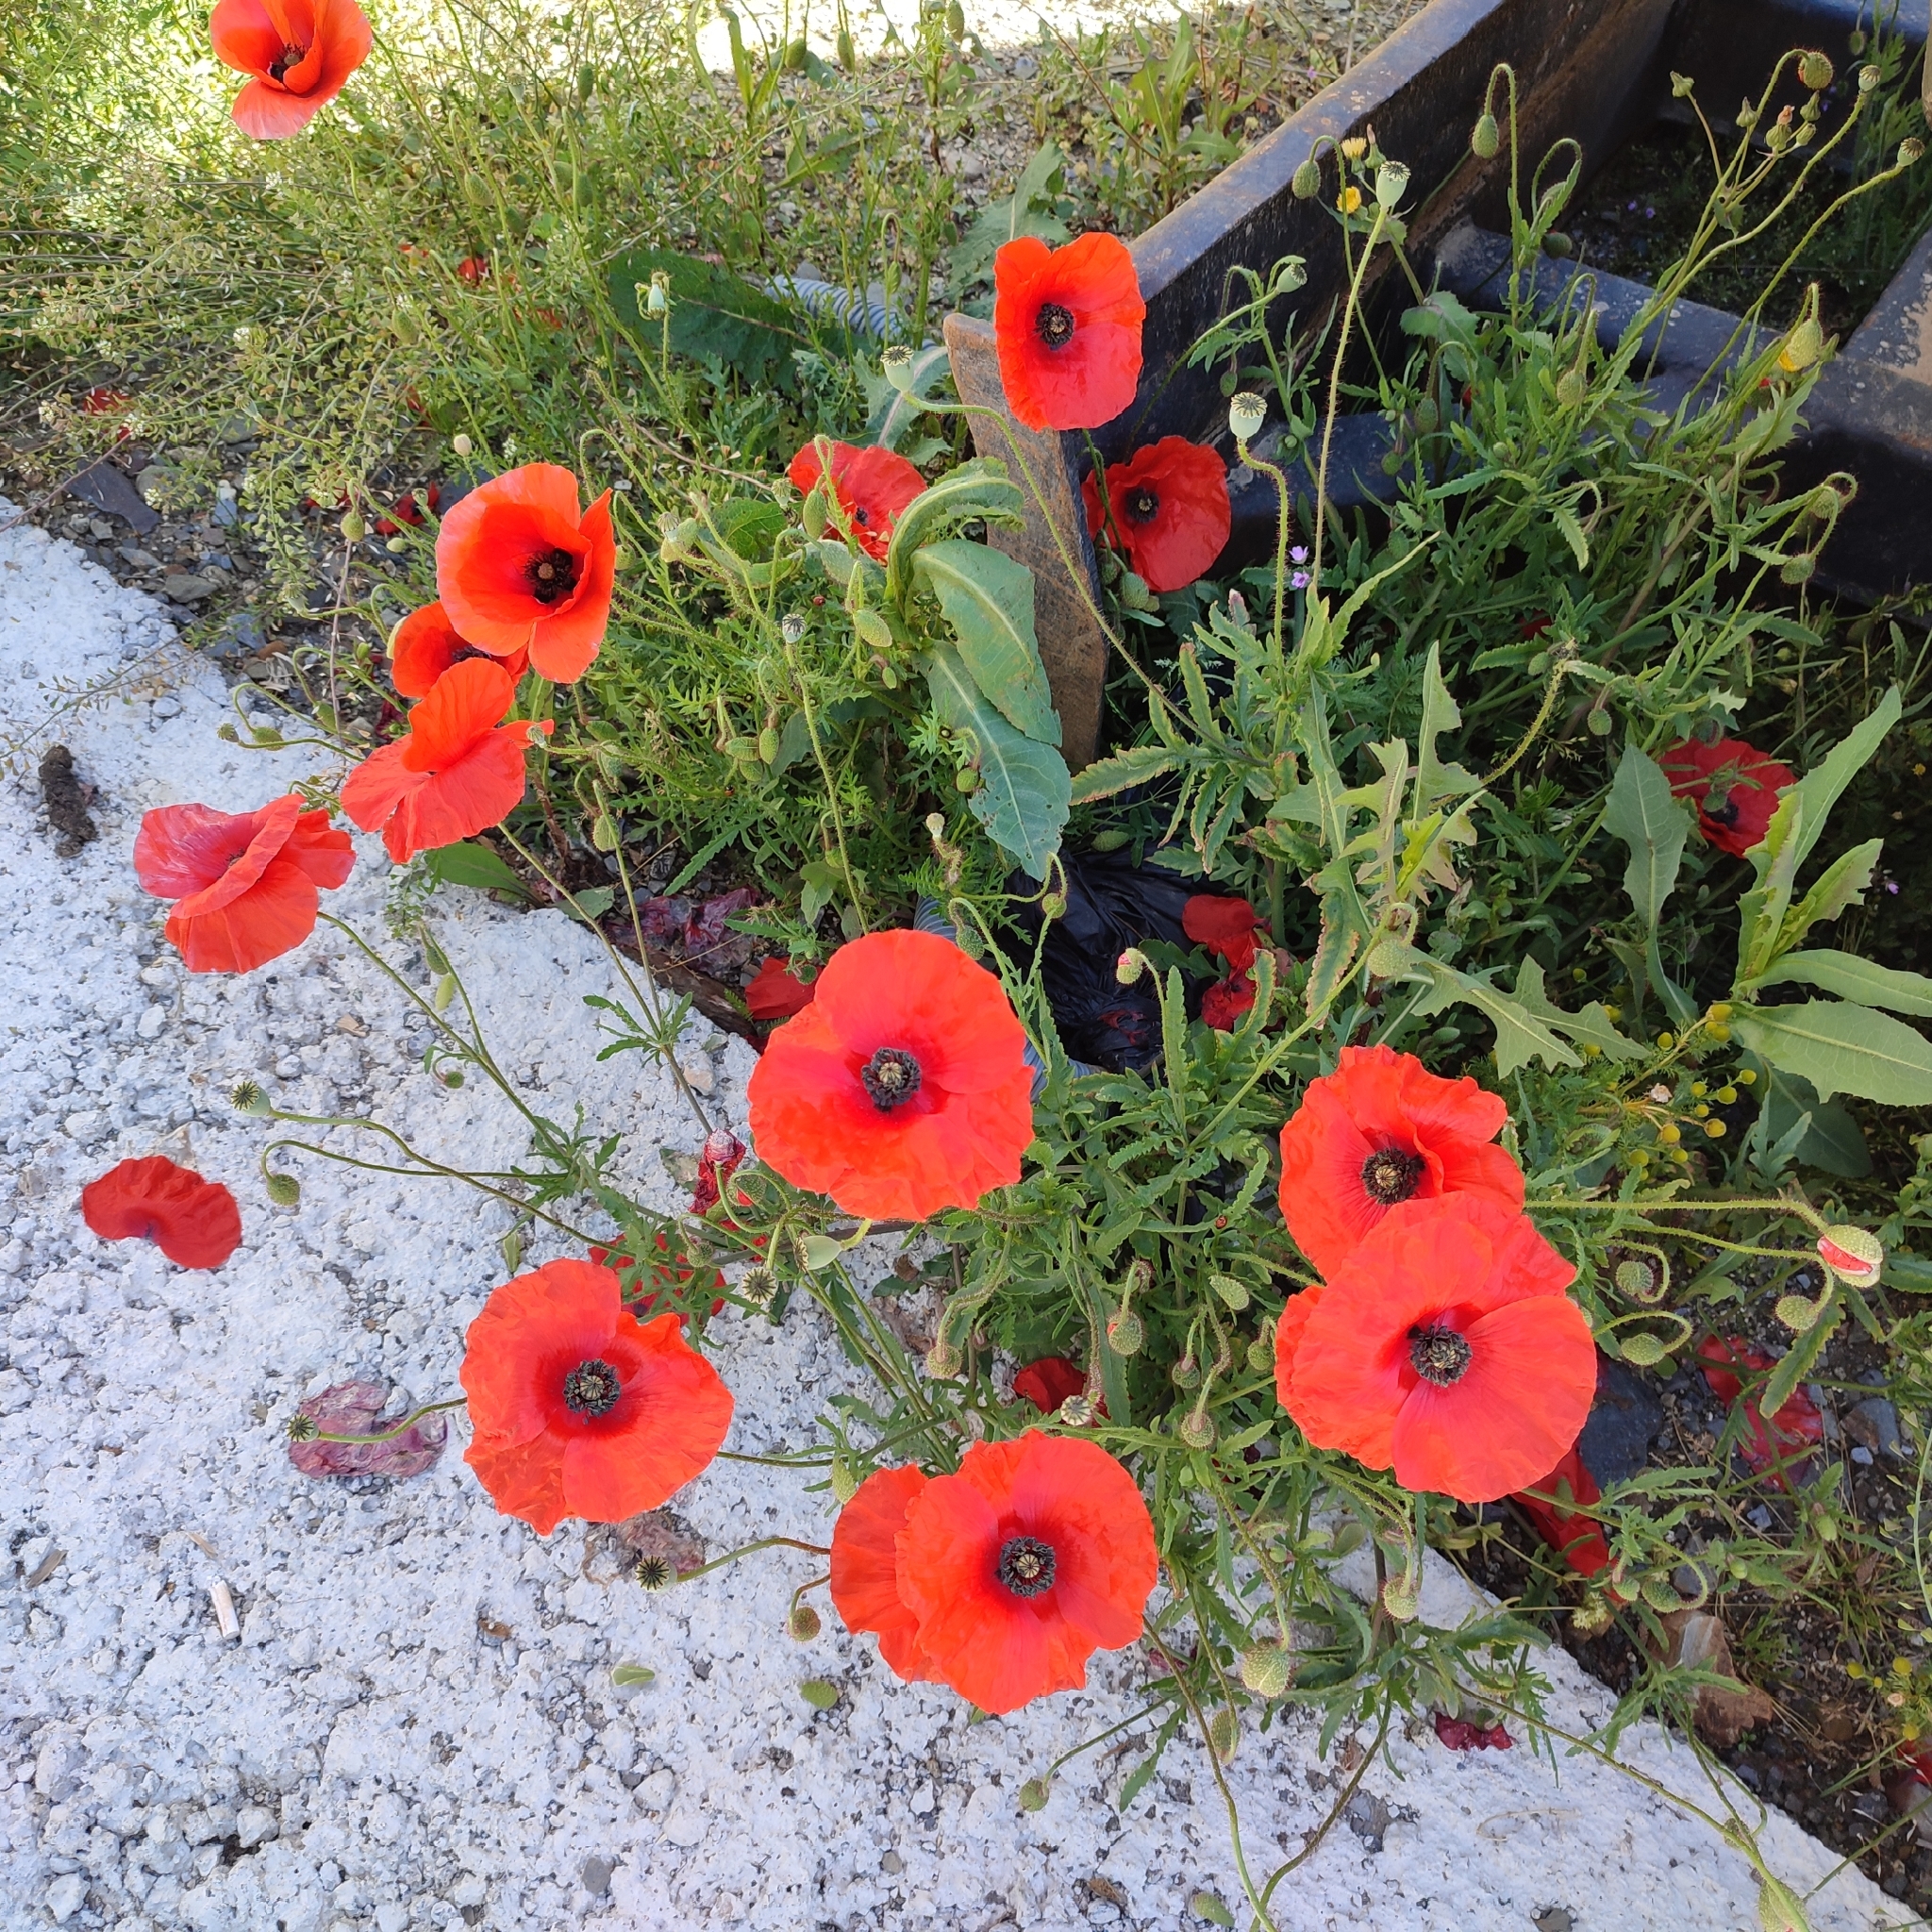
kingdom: Plantae
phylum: Tracheophyta
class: Magnoliopsida
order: Ranunculales
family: Papaveraceae
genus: Papaver
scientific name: Papaver rhoeas
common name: Corn poppy
